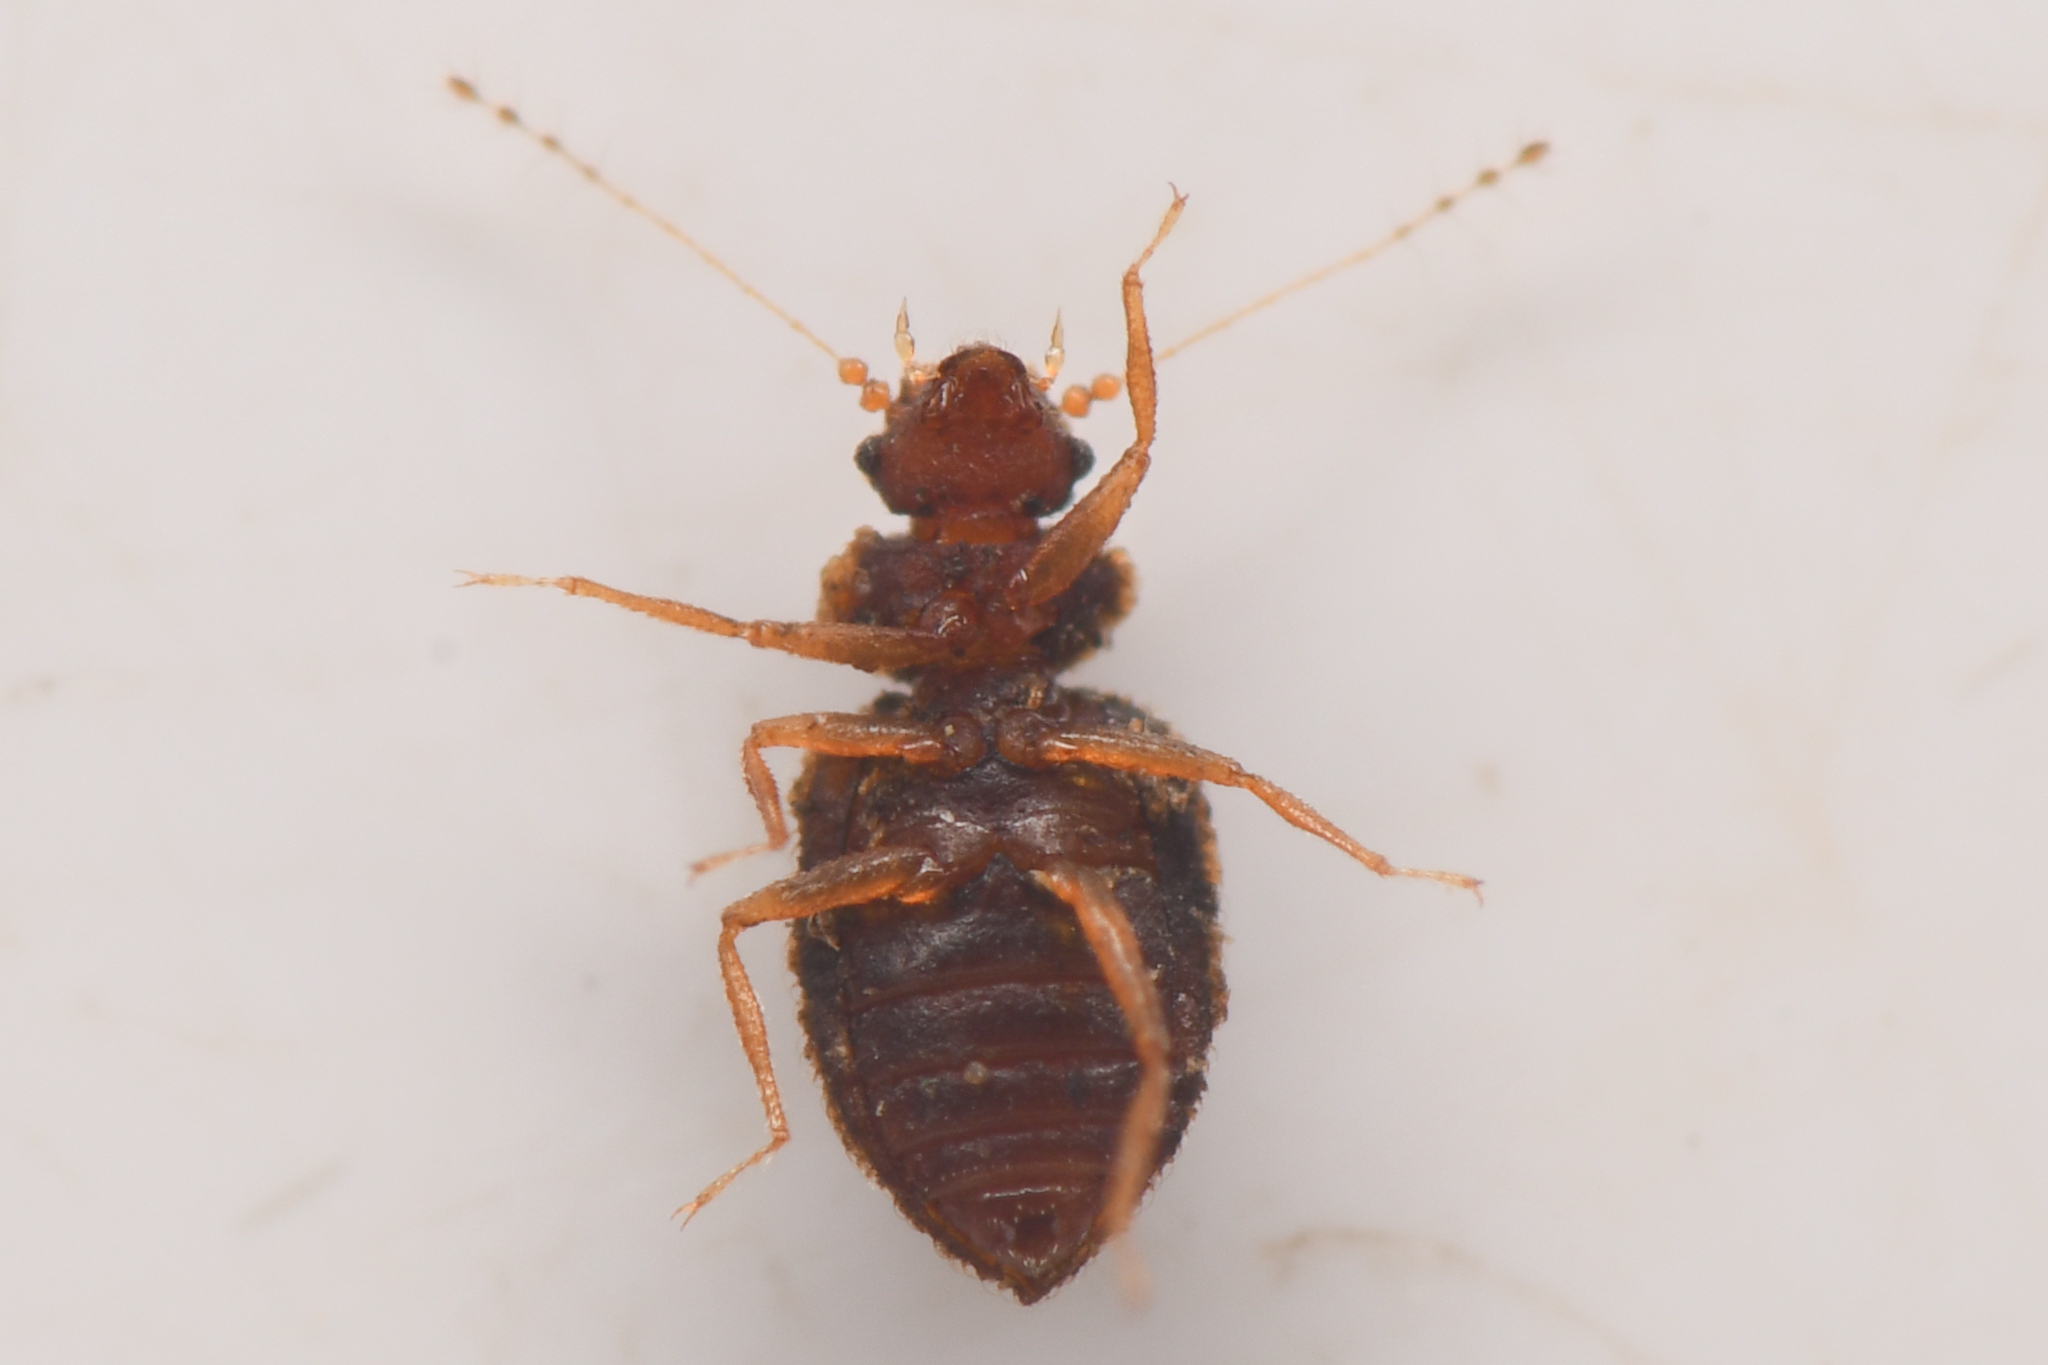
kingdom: Animalia
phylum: Arthropoda
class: Insecta
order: Coleoptera
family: Staphylinidae
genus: Dasycerus
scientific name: Dasycerus angulicollis
